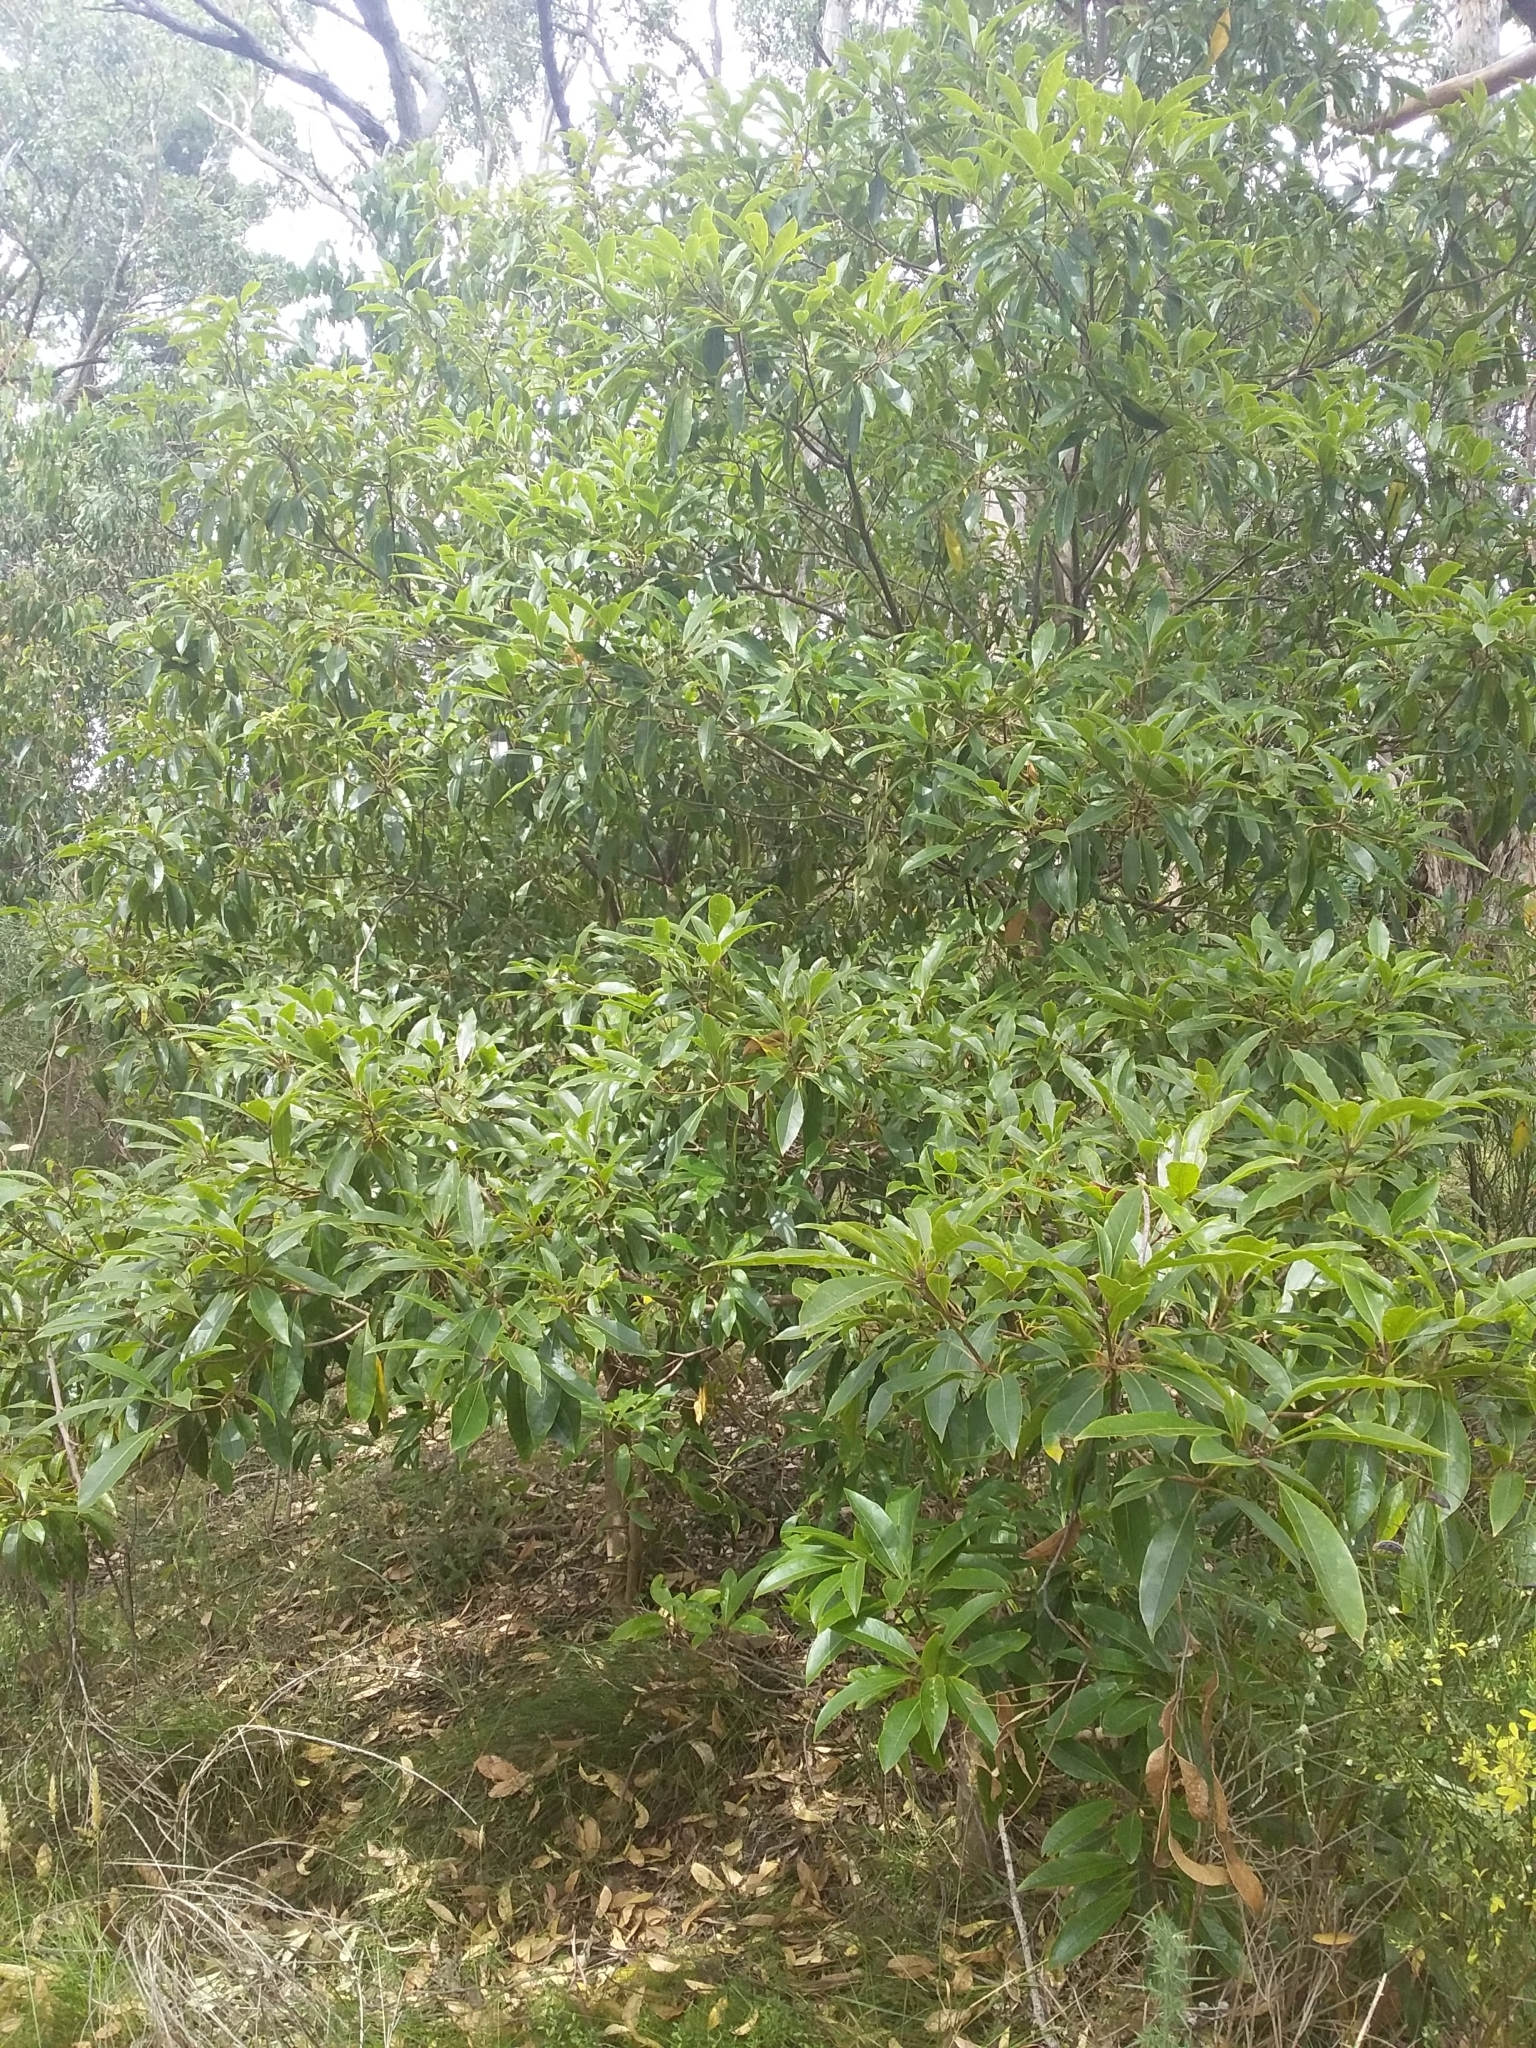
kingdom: Plantae
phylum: Tracheophyta
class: Magnoliopsida
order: Apiales
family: Pittosporaceae
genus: Pittosporum
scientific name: Pittosporum undulatum
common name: Australian cheesewood
